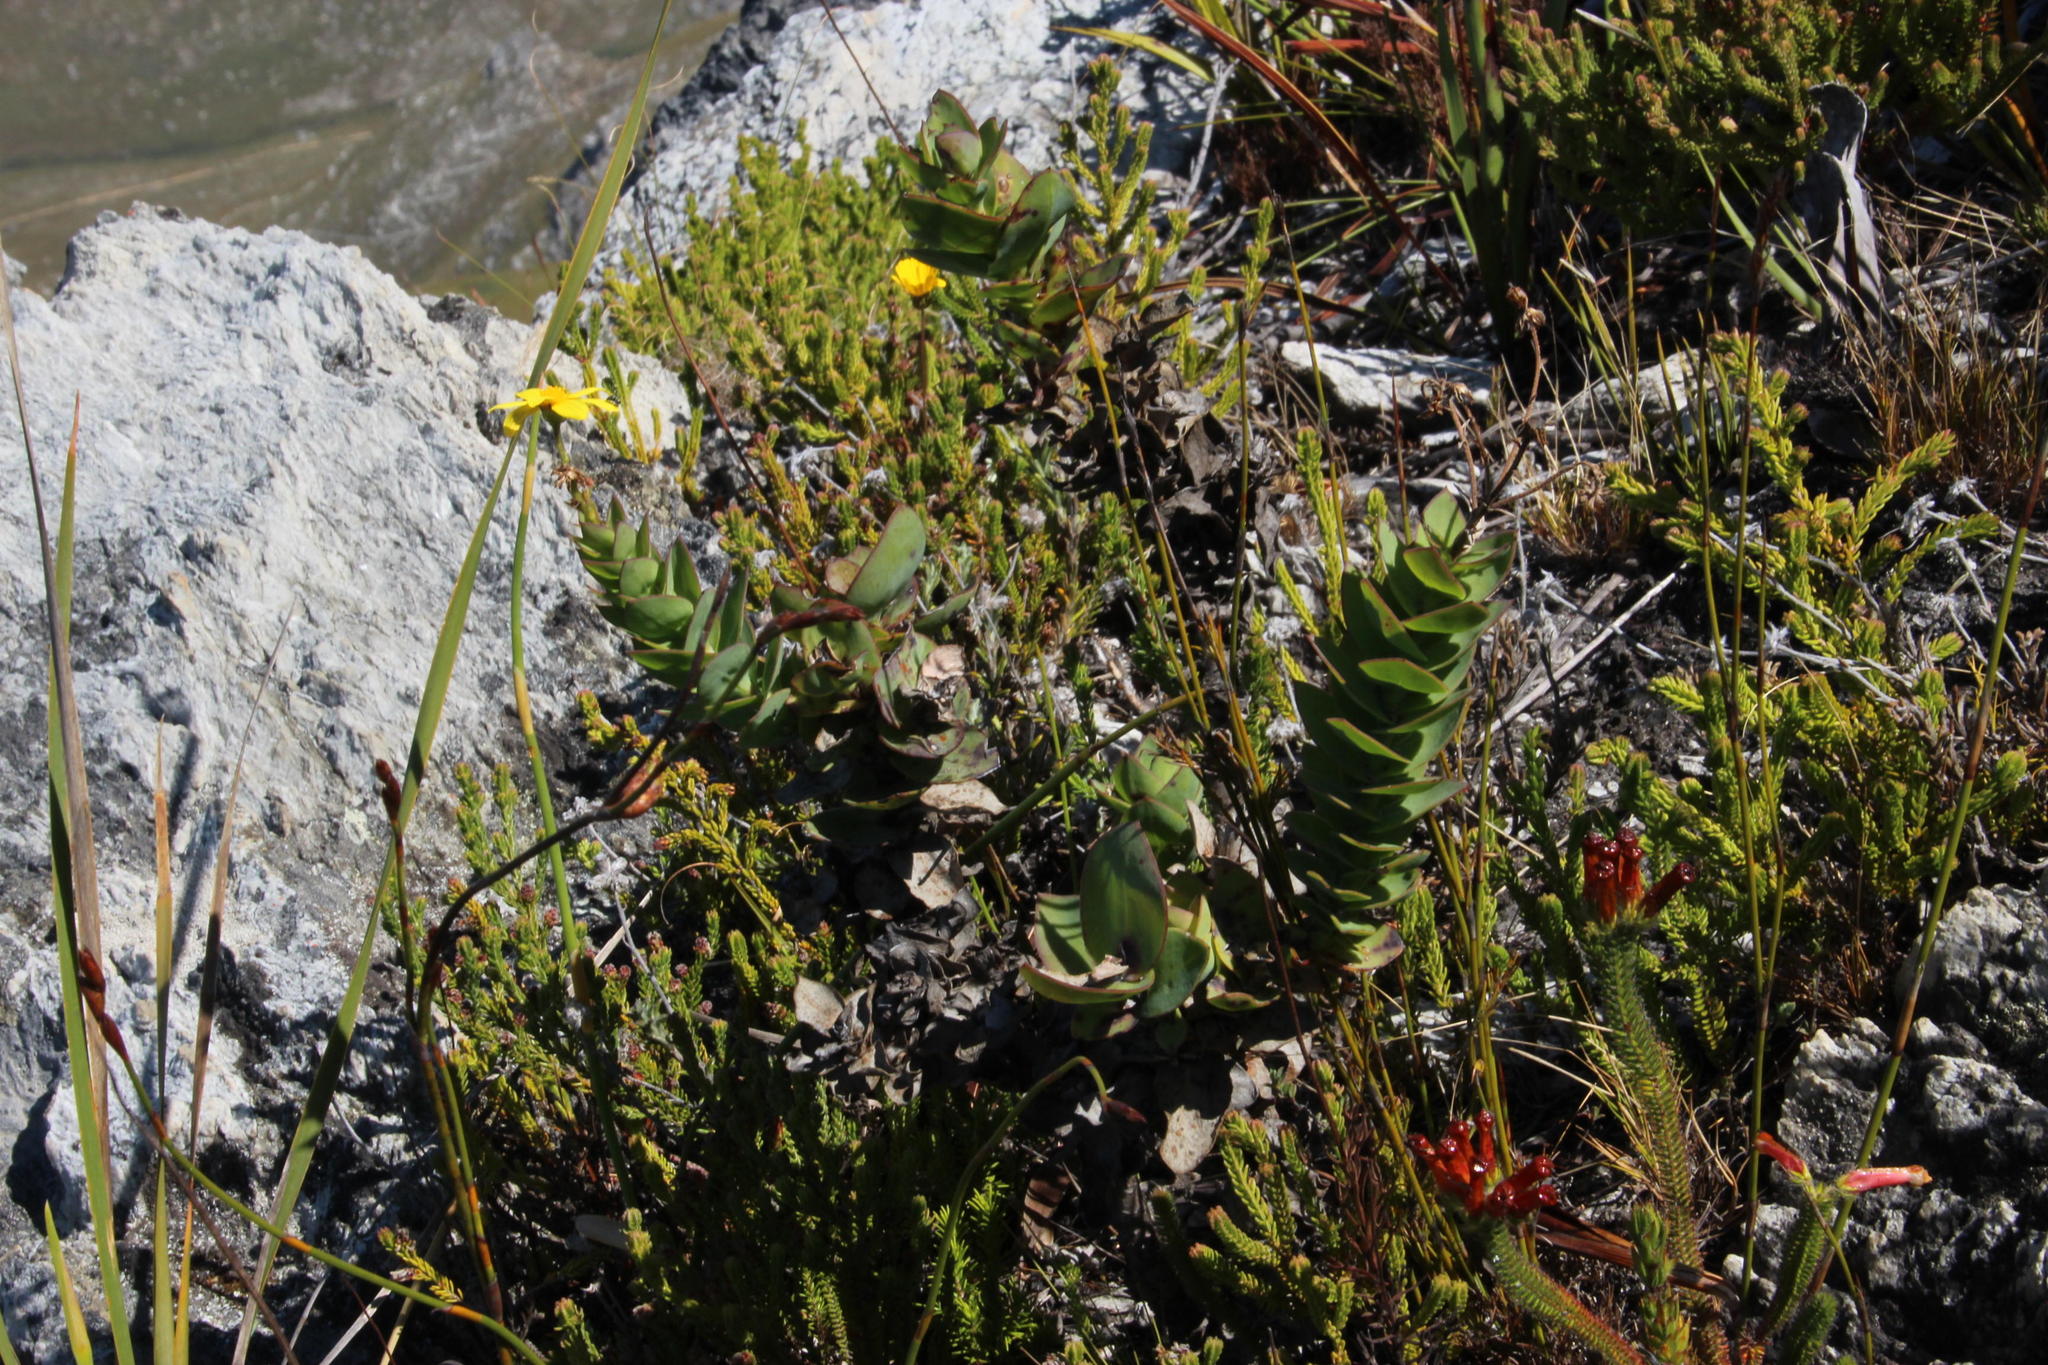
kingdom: Plantae
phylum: Tracheophyta
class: Magnoliopsida
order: Asterales
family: Asteraceae
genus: Osteospermum
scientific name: Osteospermum rotundifolium
